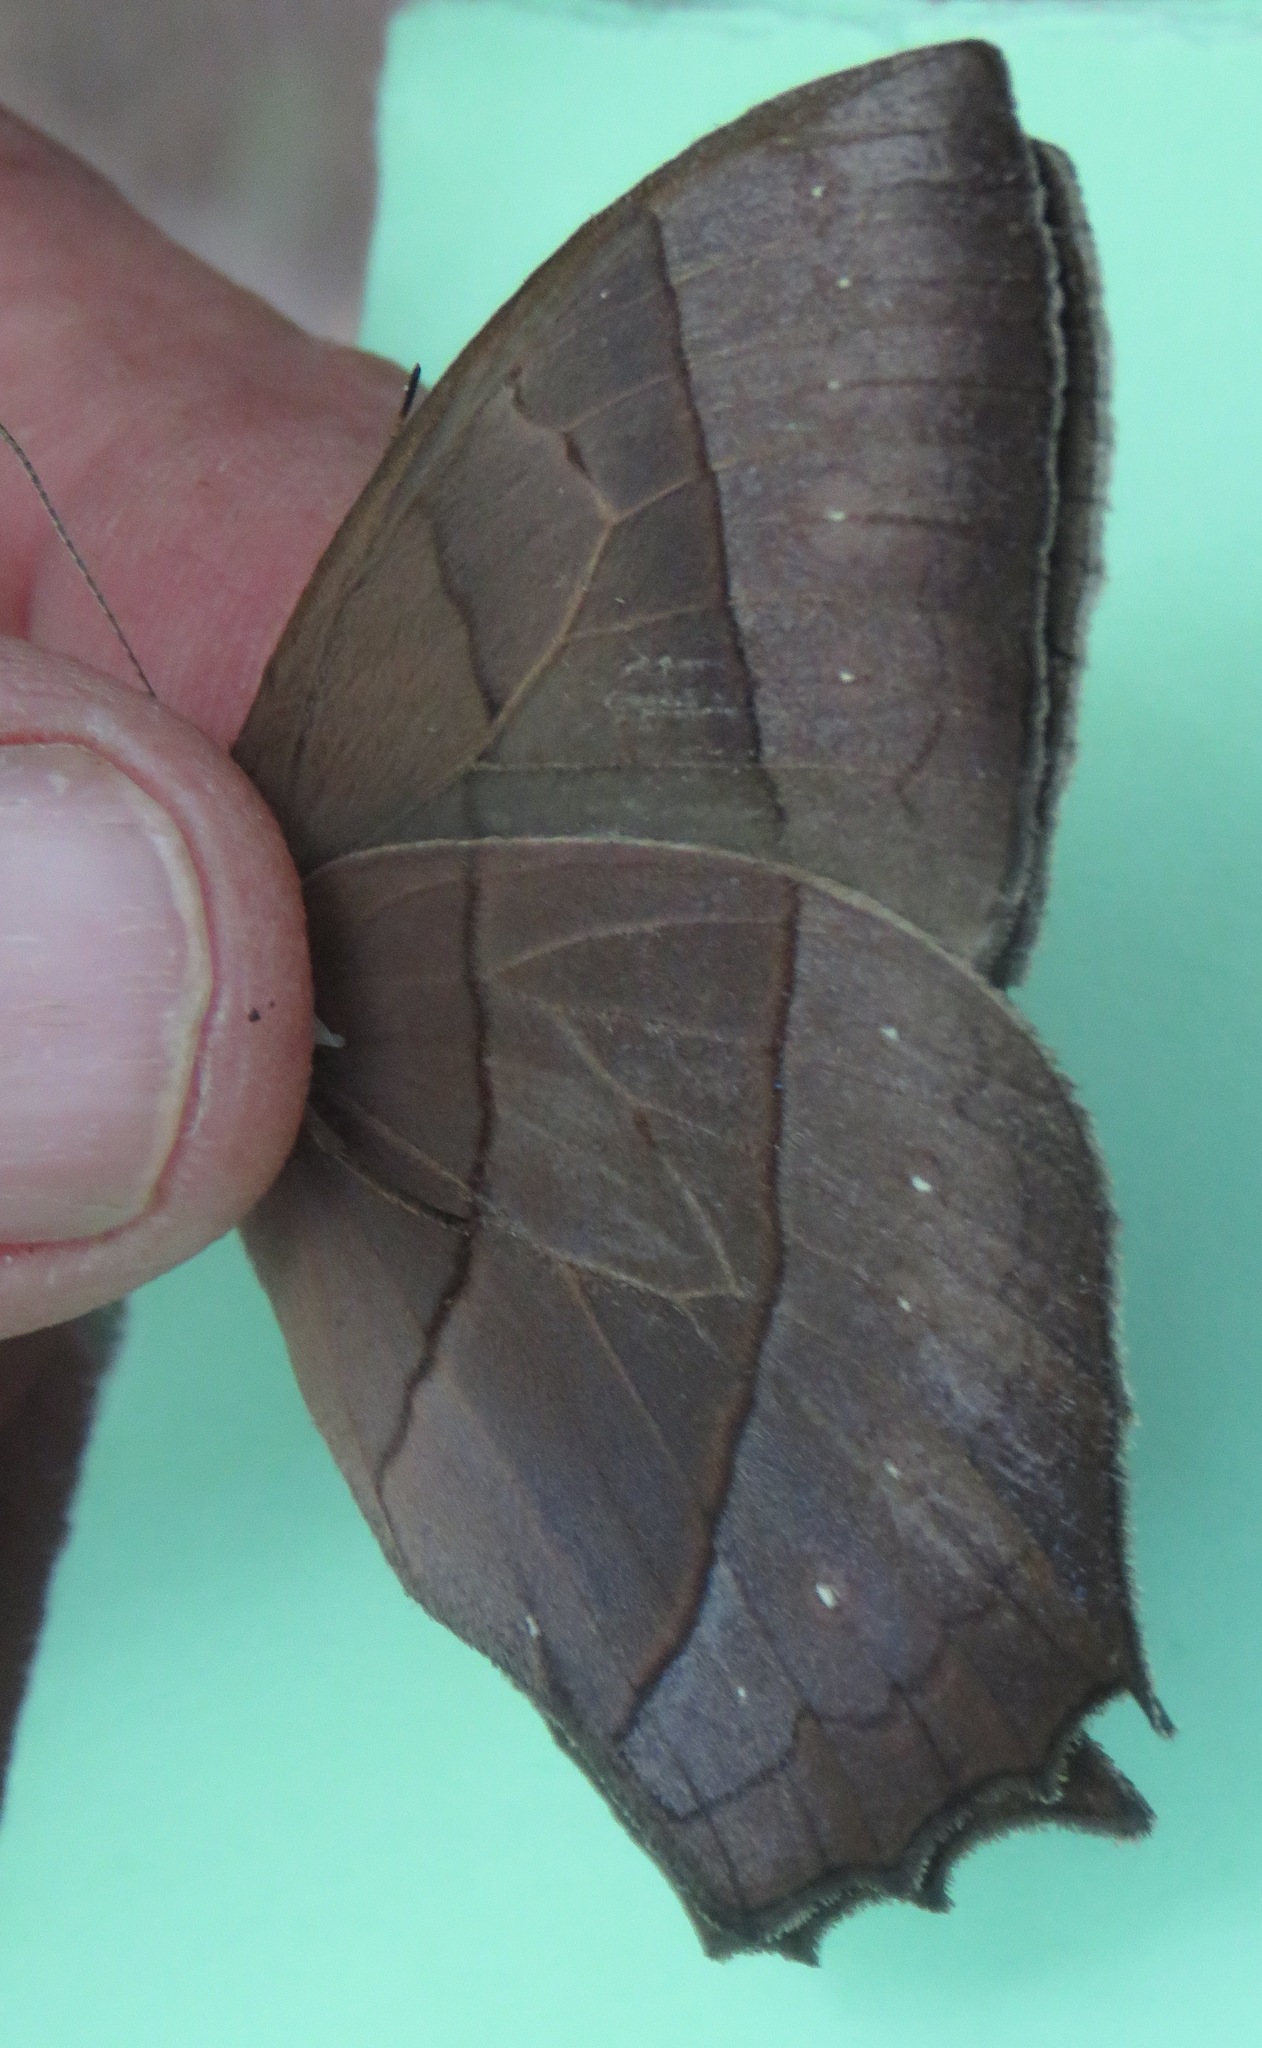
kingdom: Animalia
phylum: Arthropoda
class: Insecta
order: Lepidoptera
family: Nymphalidae
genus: Taygetis
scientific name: Taygetis virgilia
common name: Stub-tailed satyr
